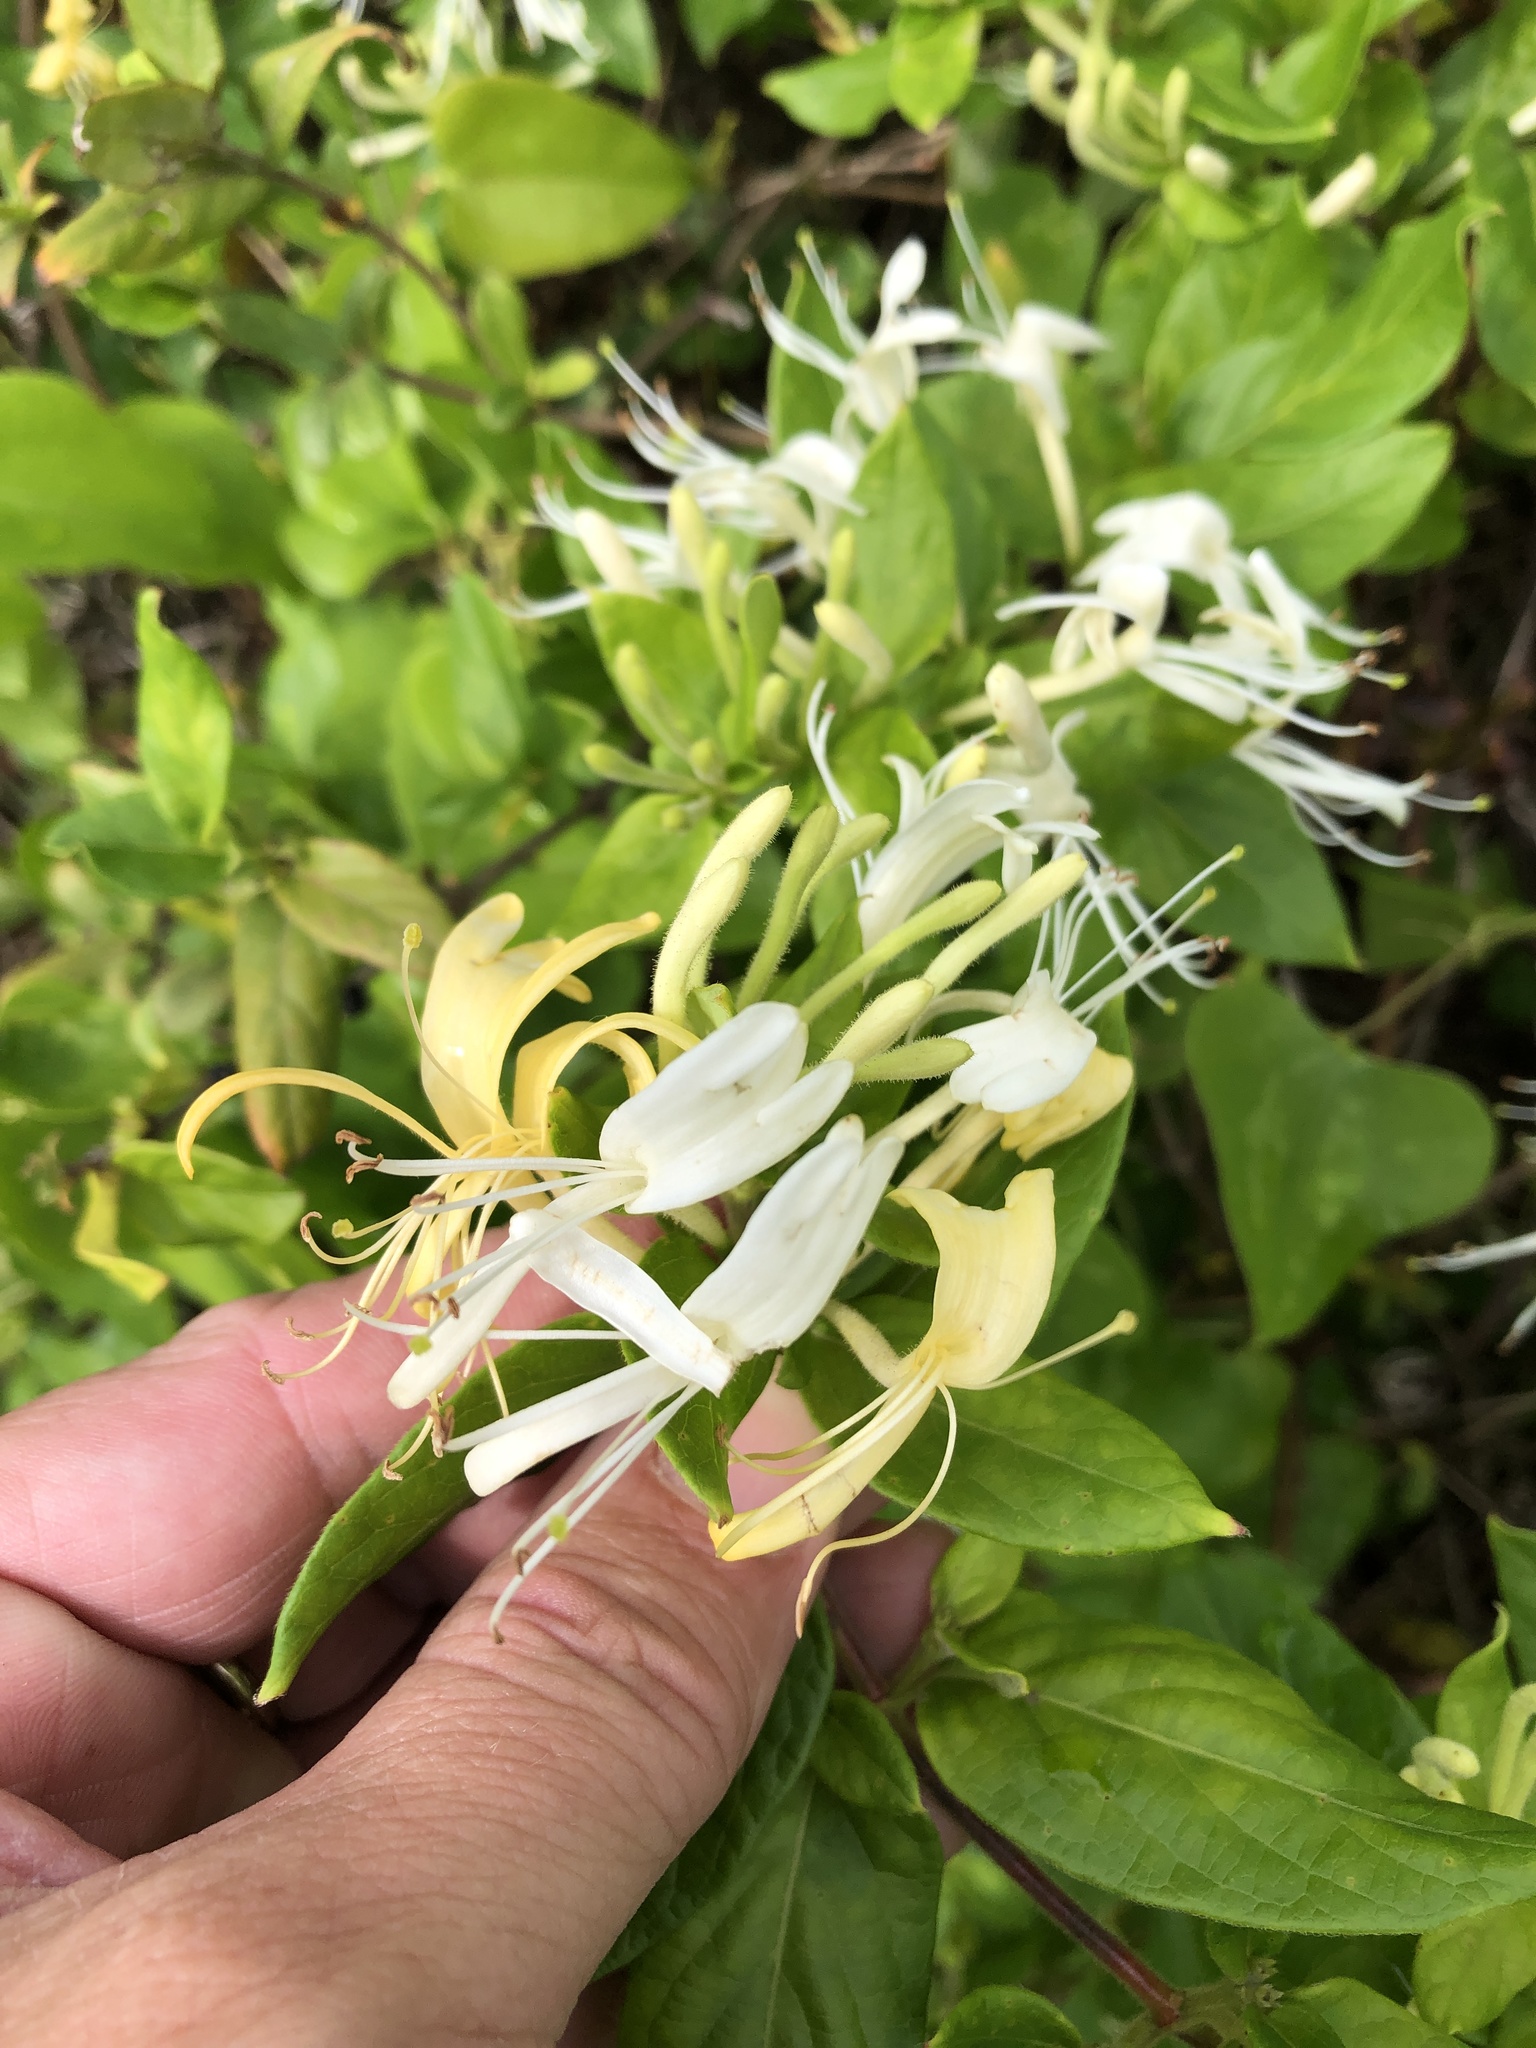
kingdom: Plantae
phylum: Tracheophyta
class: Magnoliopsida
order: Dipsacales
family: Caprifoliaceae
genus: Lonicera
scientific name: Lonicera japonica
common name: Japanese honeysuckle
